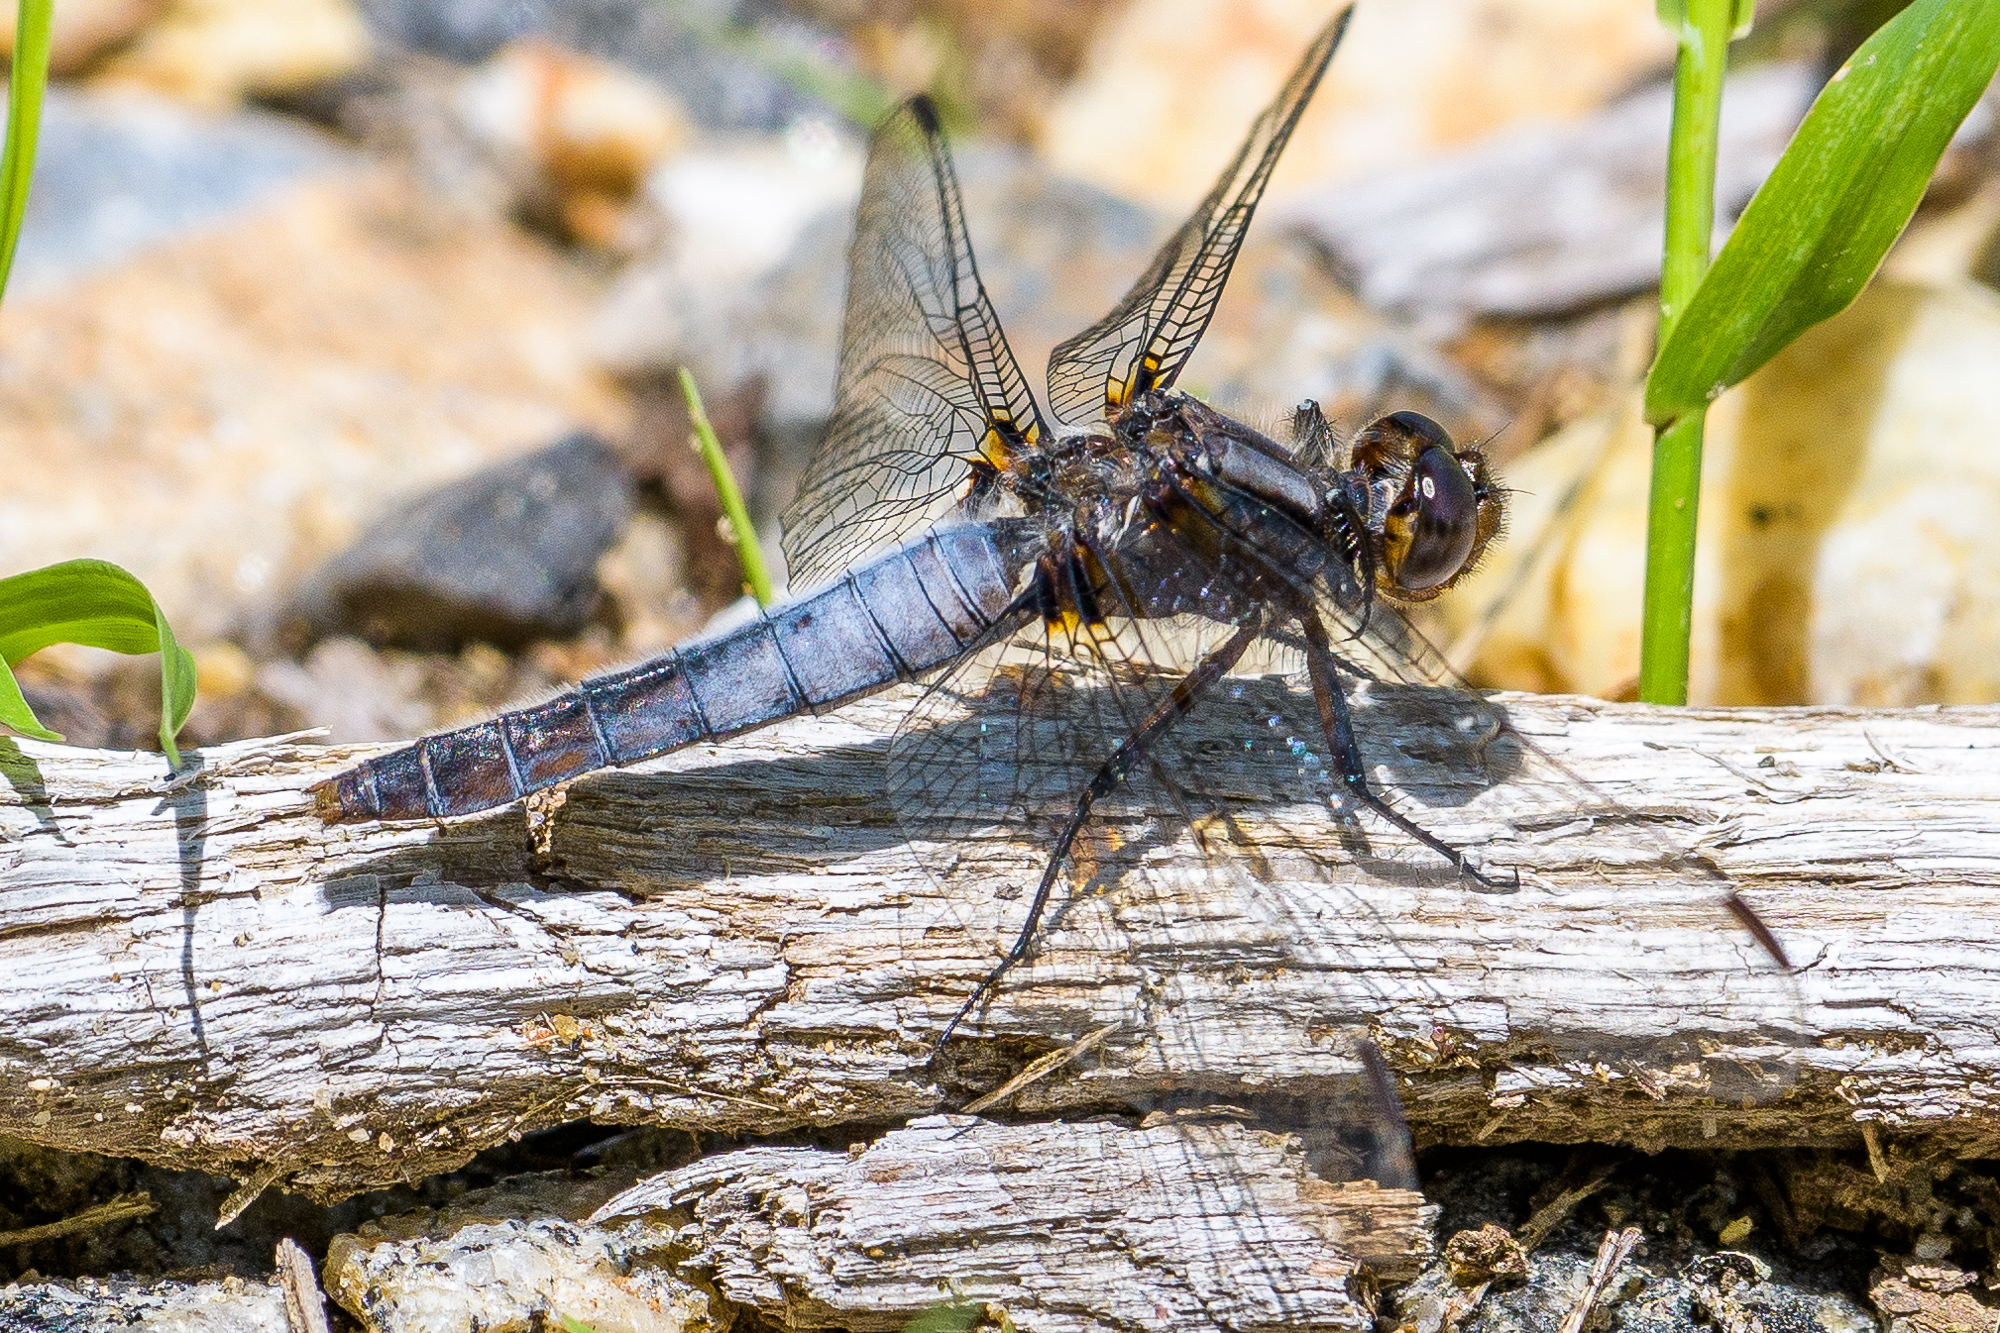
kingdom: Animalia
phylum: Arthropoda
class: Insecta
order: Odonata
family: Libellulidae
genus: Ladona
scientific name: Ladona julia
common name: Chalk-fronted corporal
